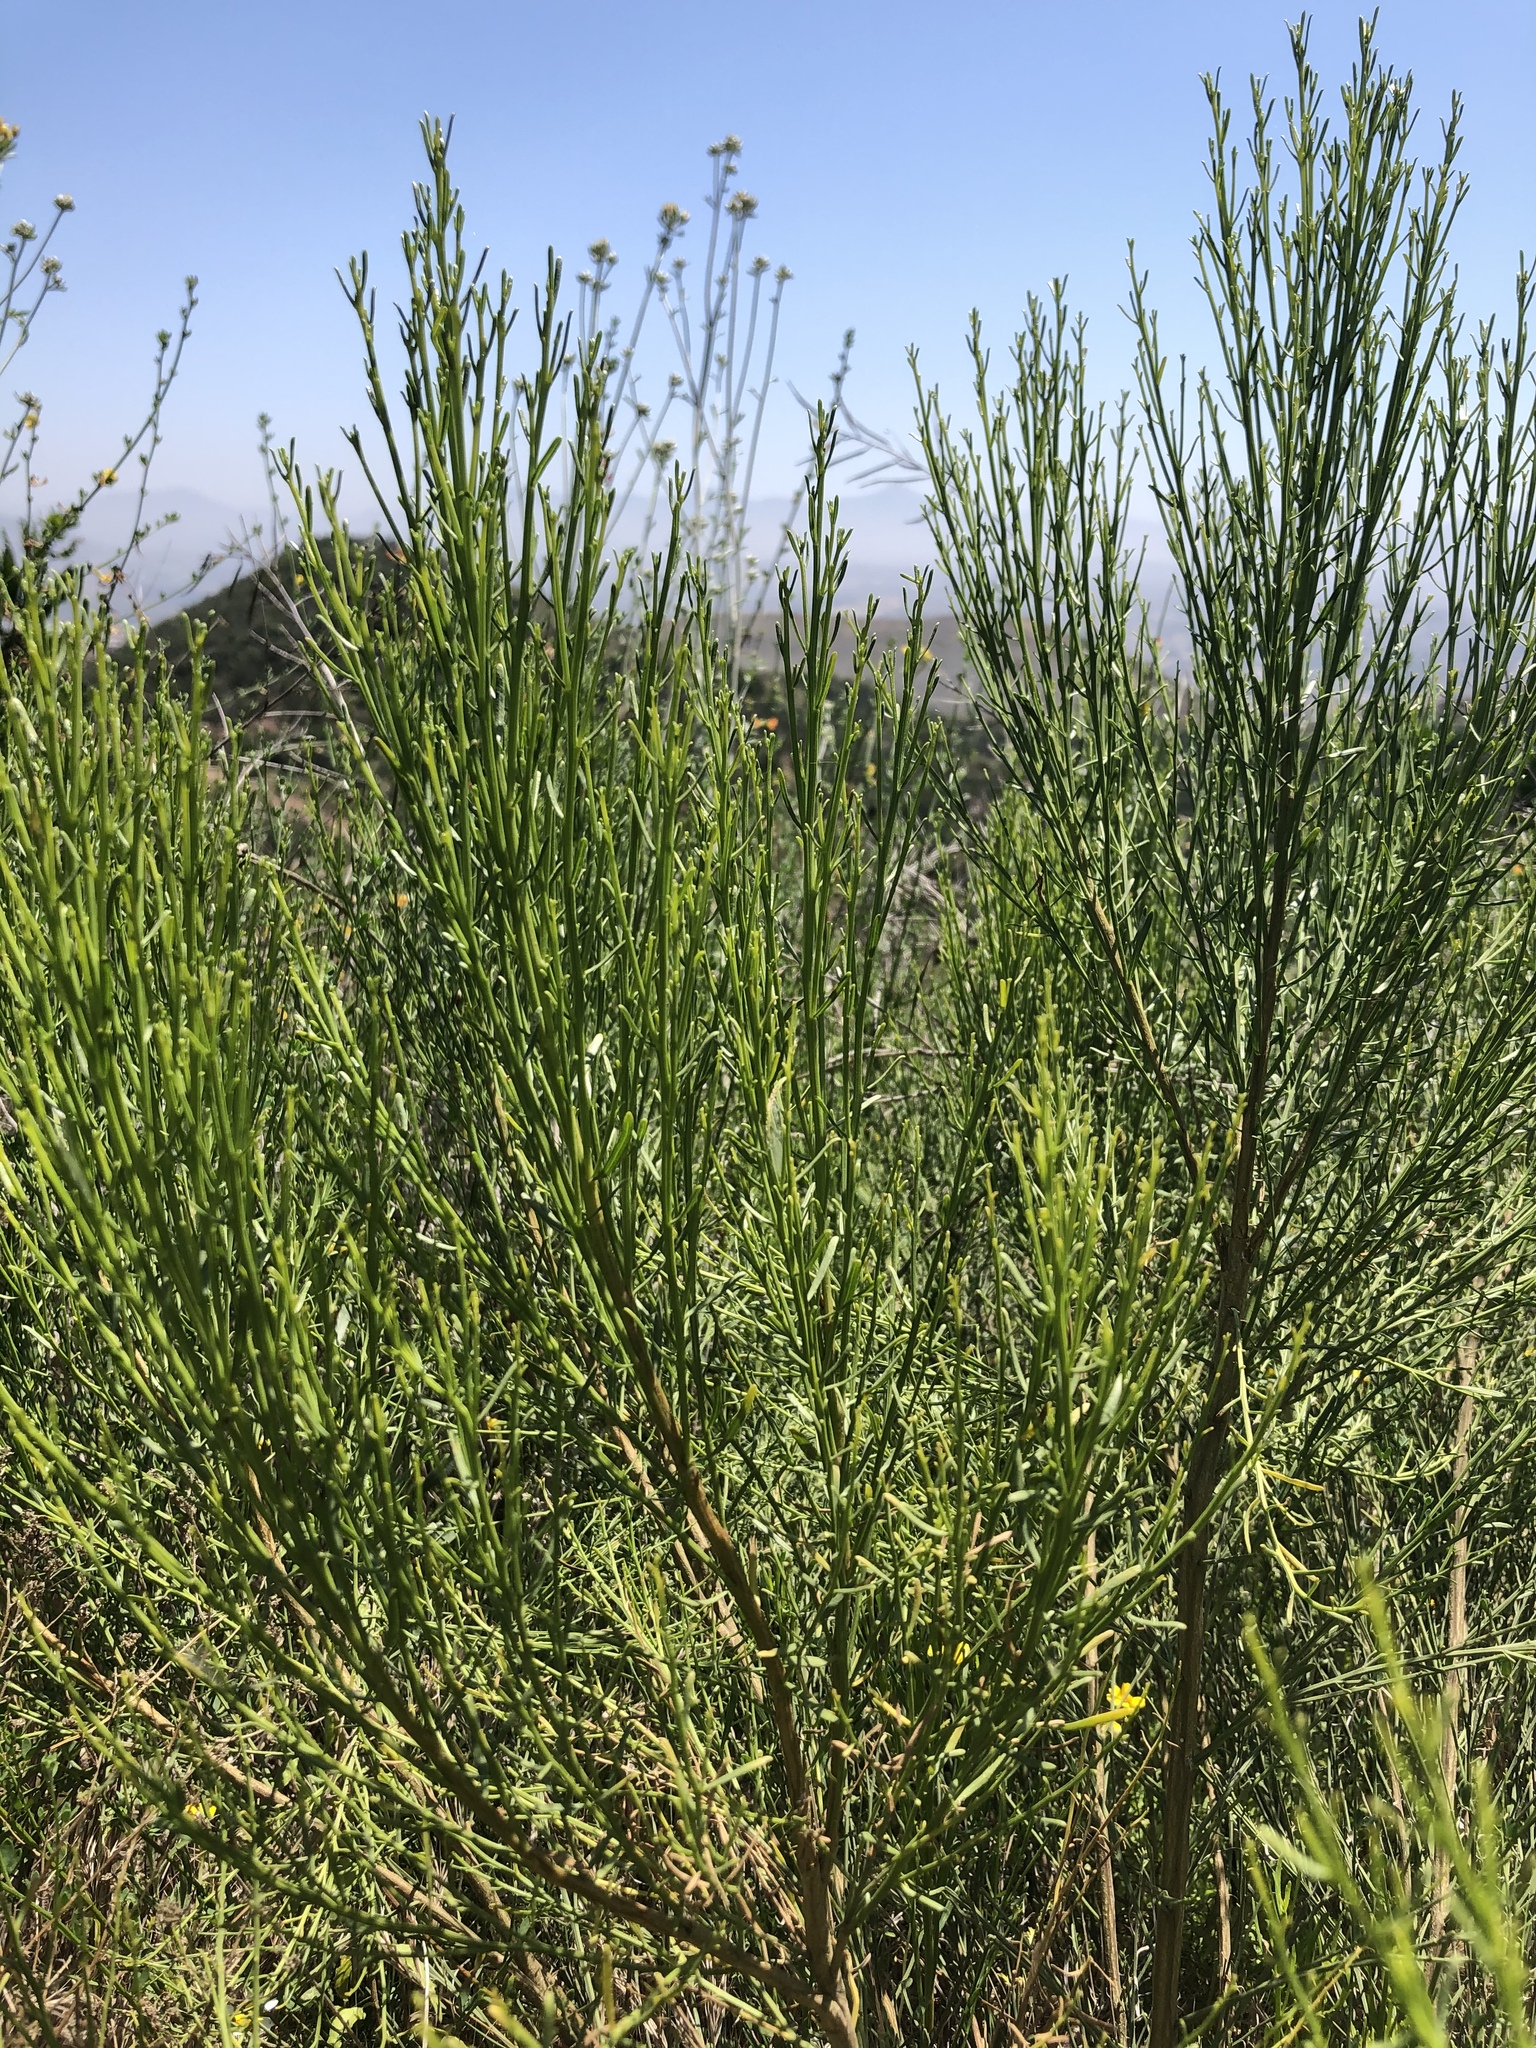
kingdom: Plantae
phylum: Tracheophyta
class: Magnoliopsida
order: Asterales
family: Asteraceae
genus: Baccharis
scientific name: Baccharis sarothroides
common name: Desert-broom
